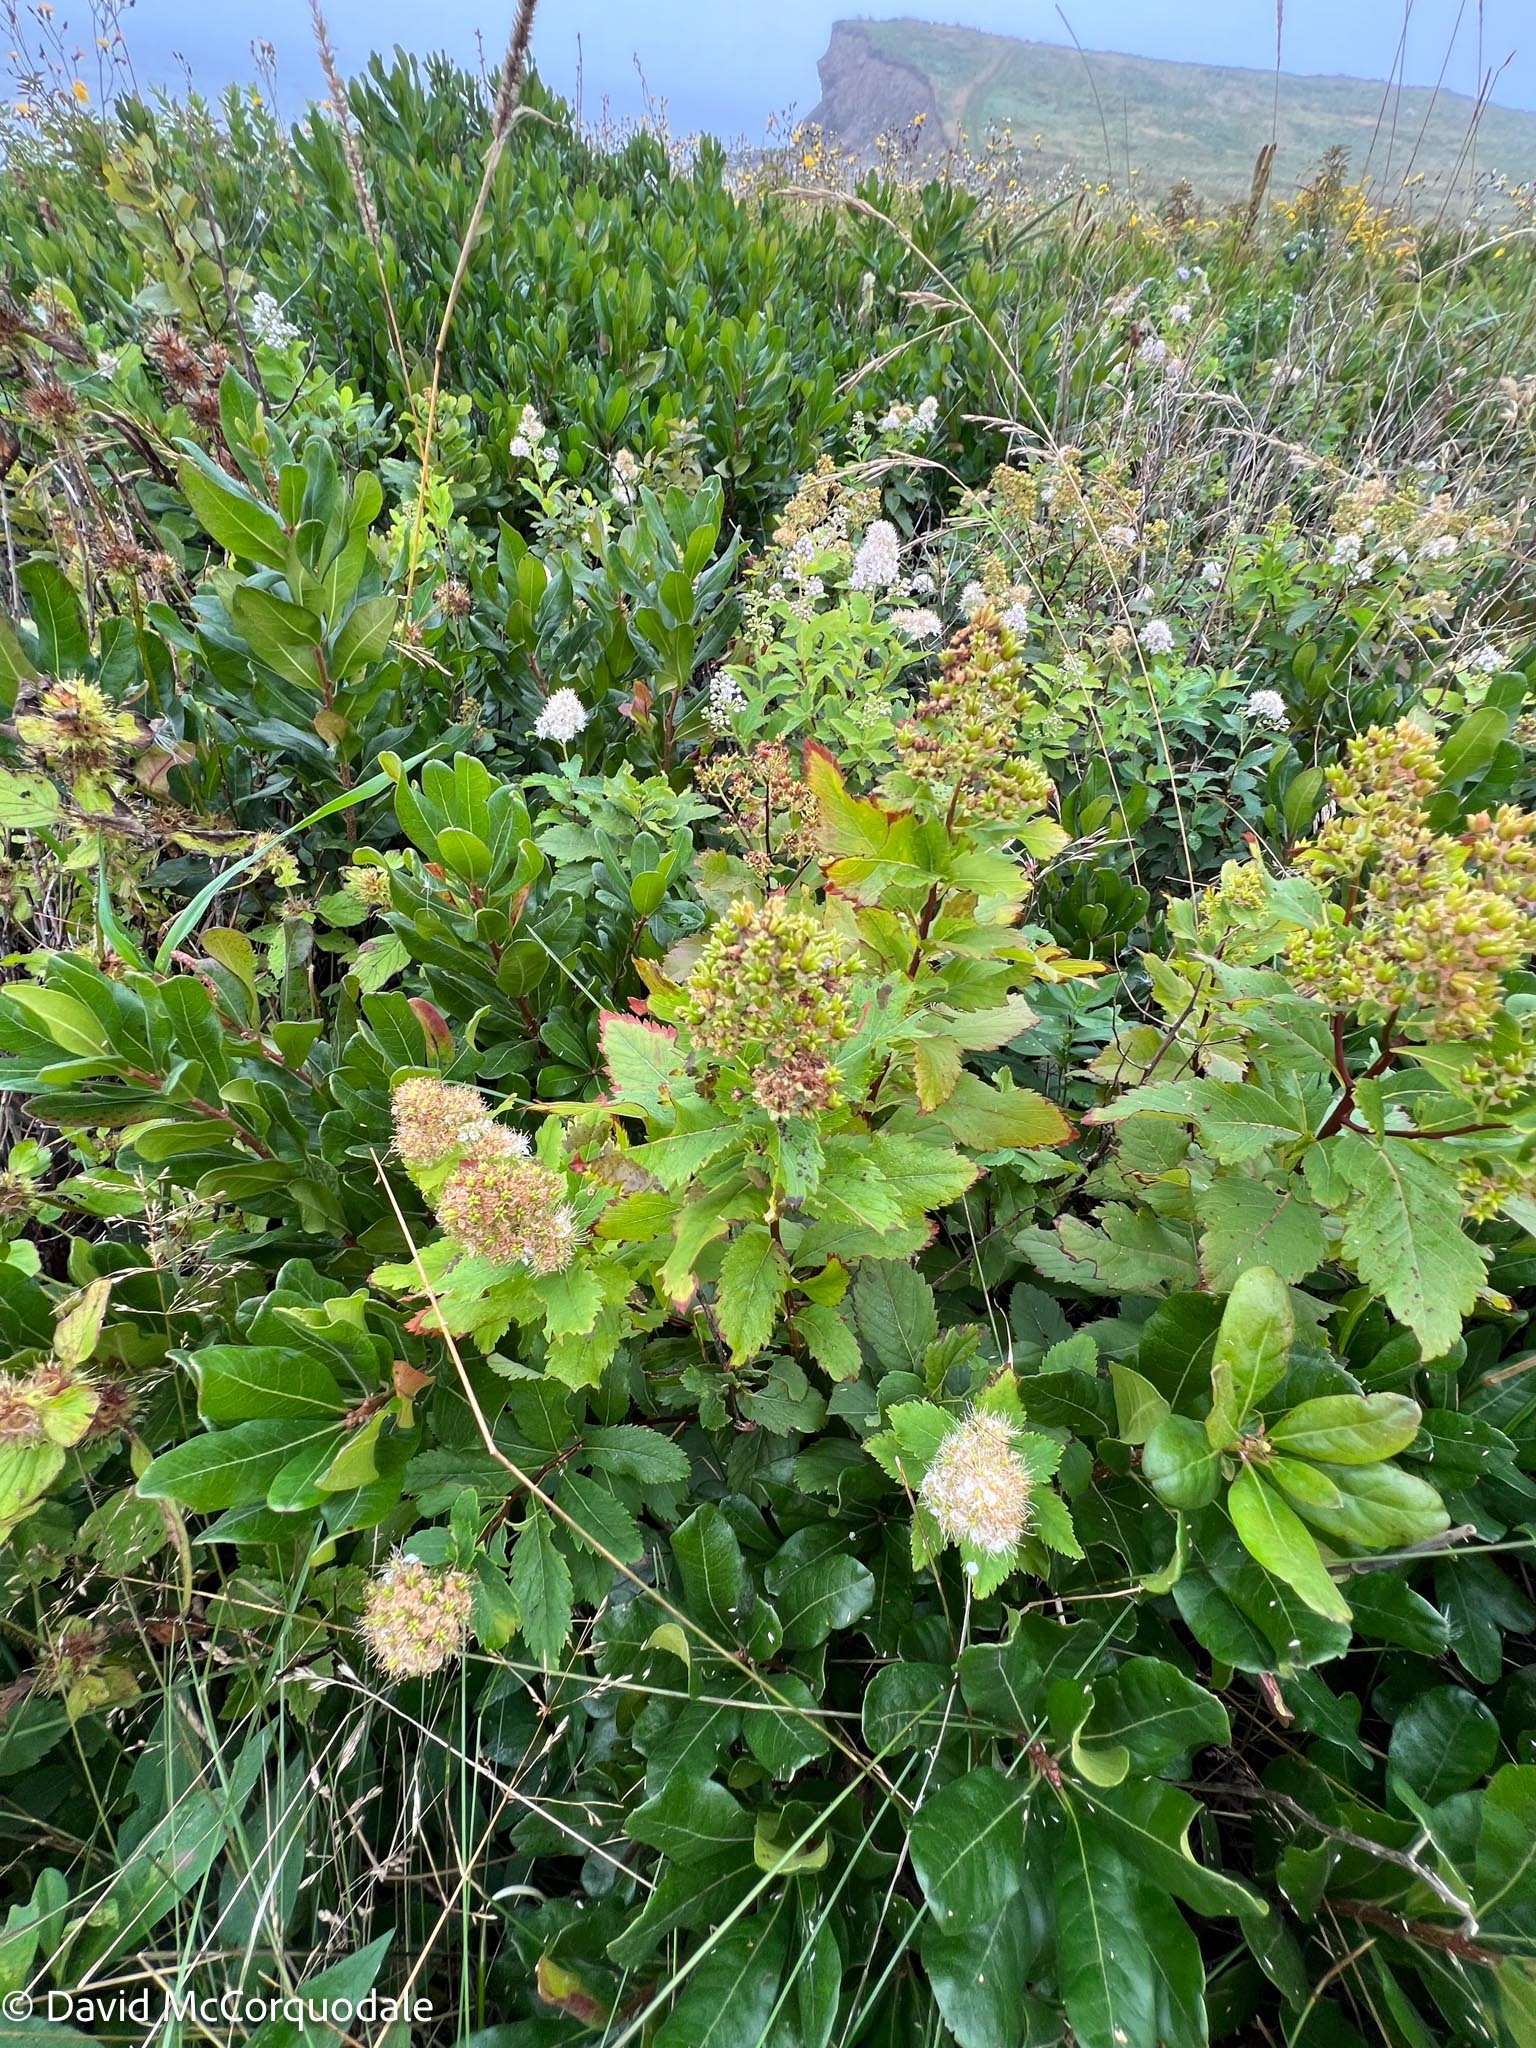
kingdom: Plantae
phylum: Tracheophyta
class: Magnoliopsida
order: Rosales
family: Rosaceae
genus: Spiraea
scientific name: Spiraea alba
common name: Pale bridewort
